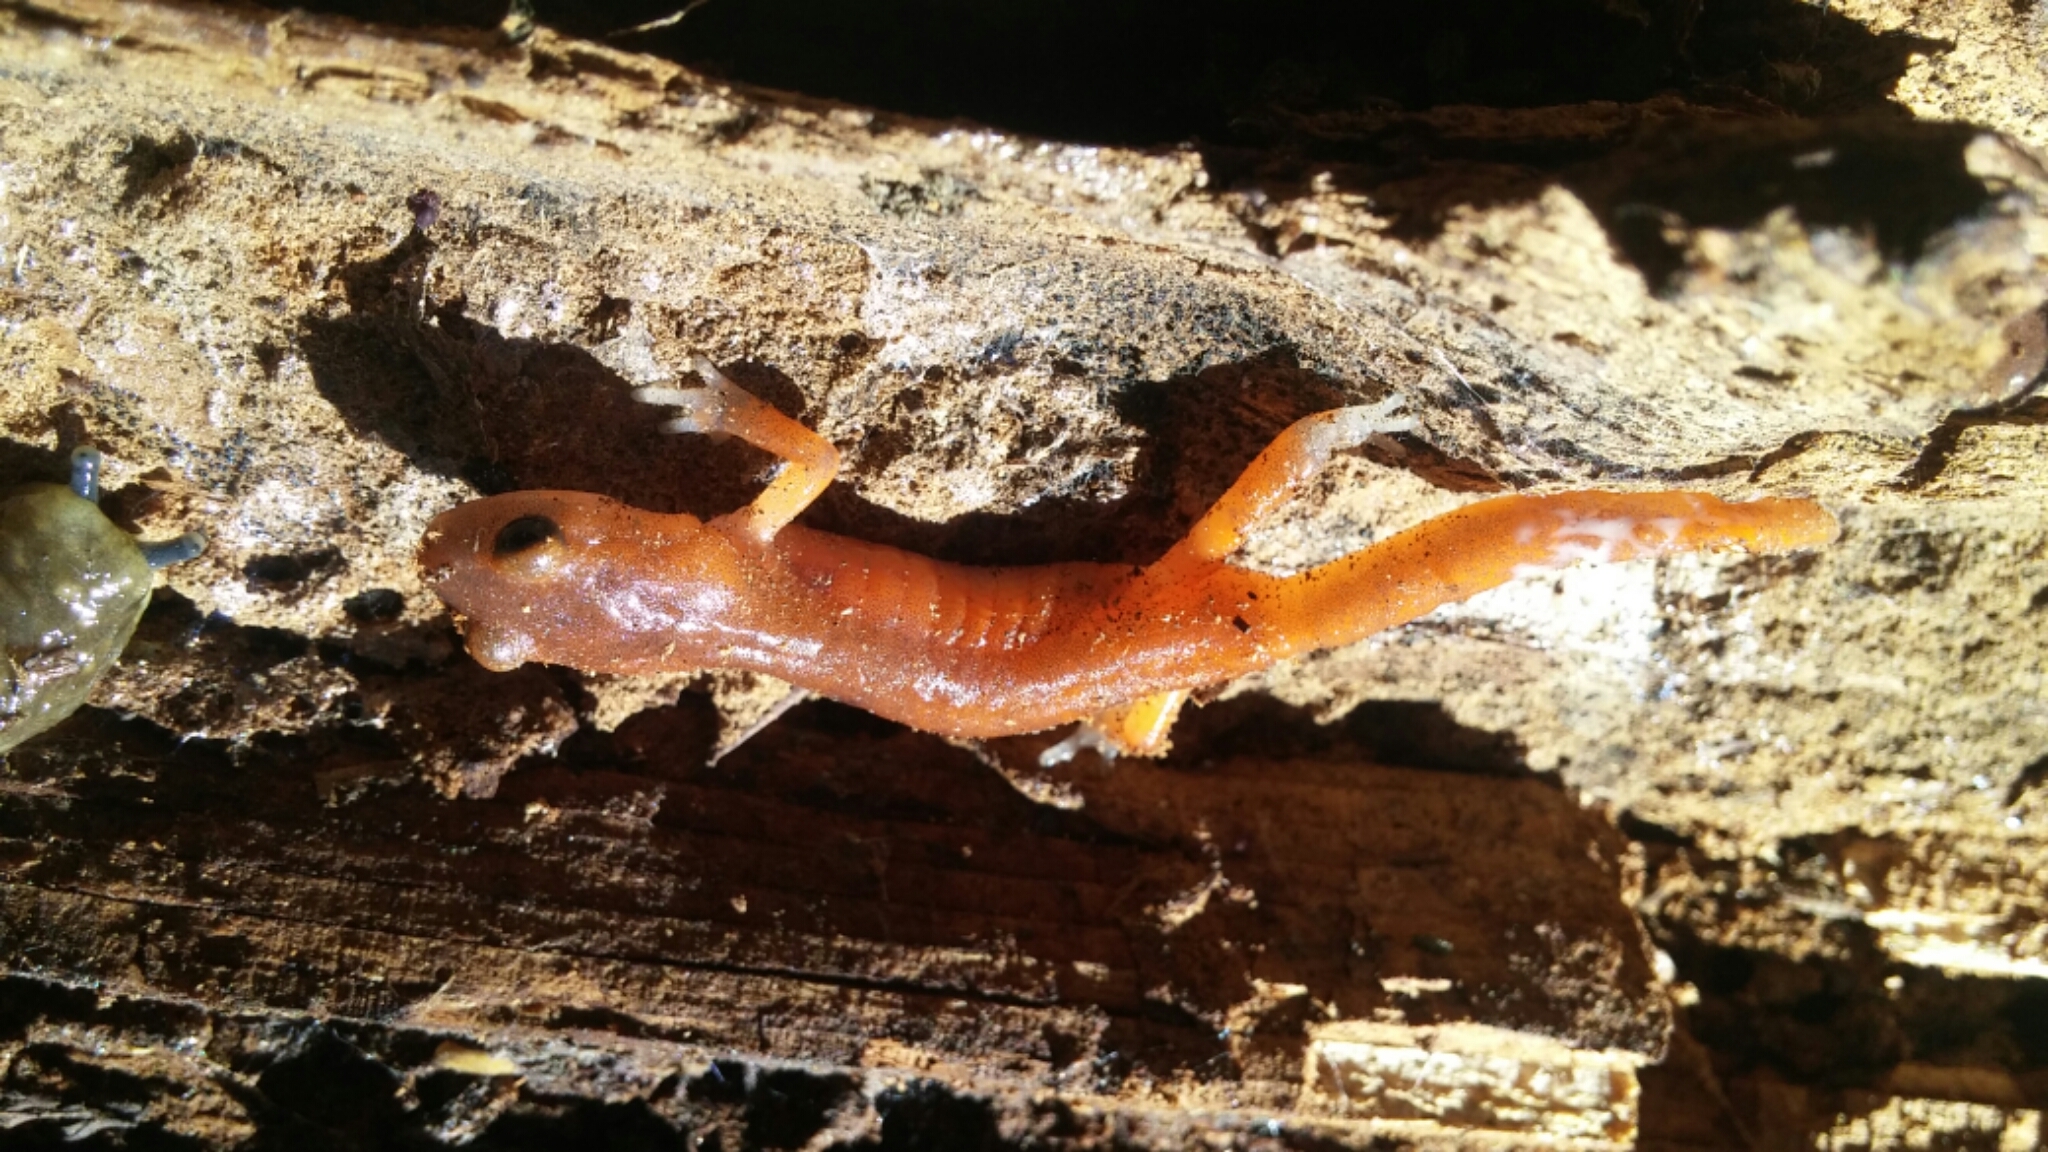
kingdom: Animalia
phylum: Chordata
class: Amphibia
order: Caudata
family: Plethodontidae
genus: Ensatina
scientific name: Ensatina eschscholtzii
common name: Ensatina
